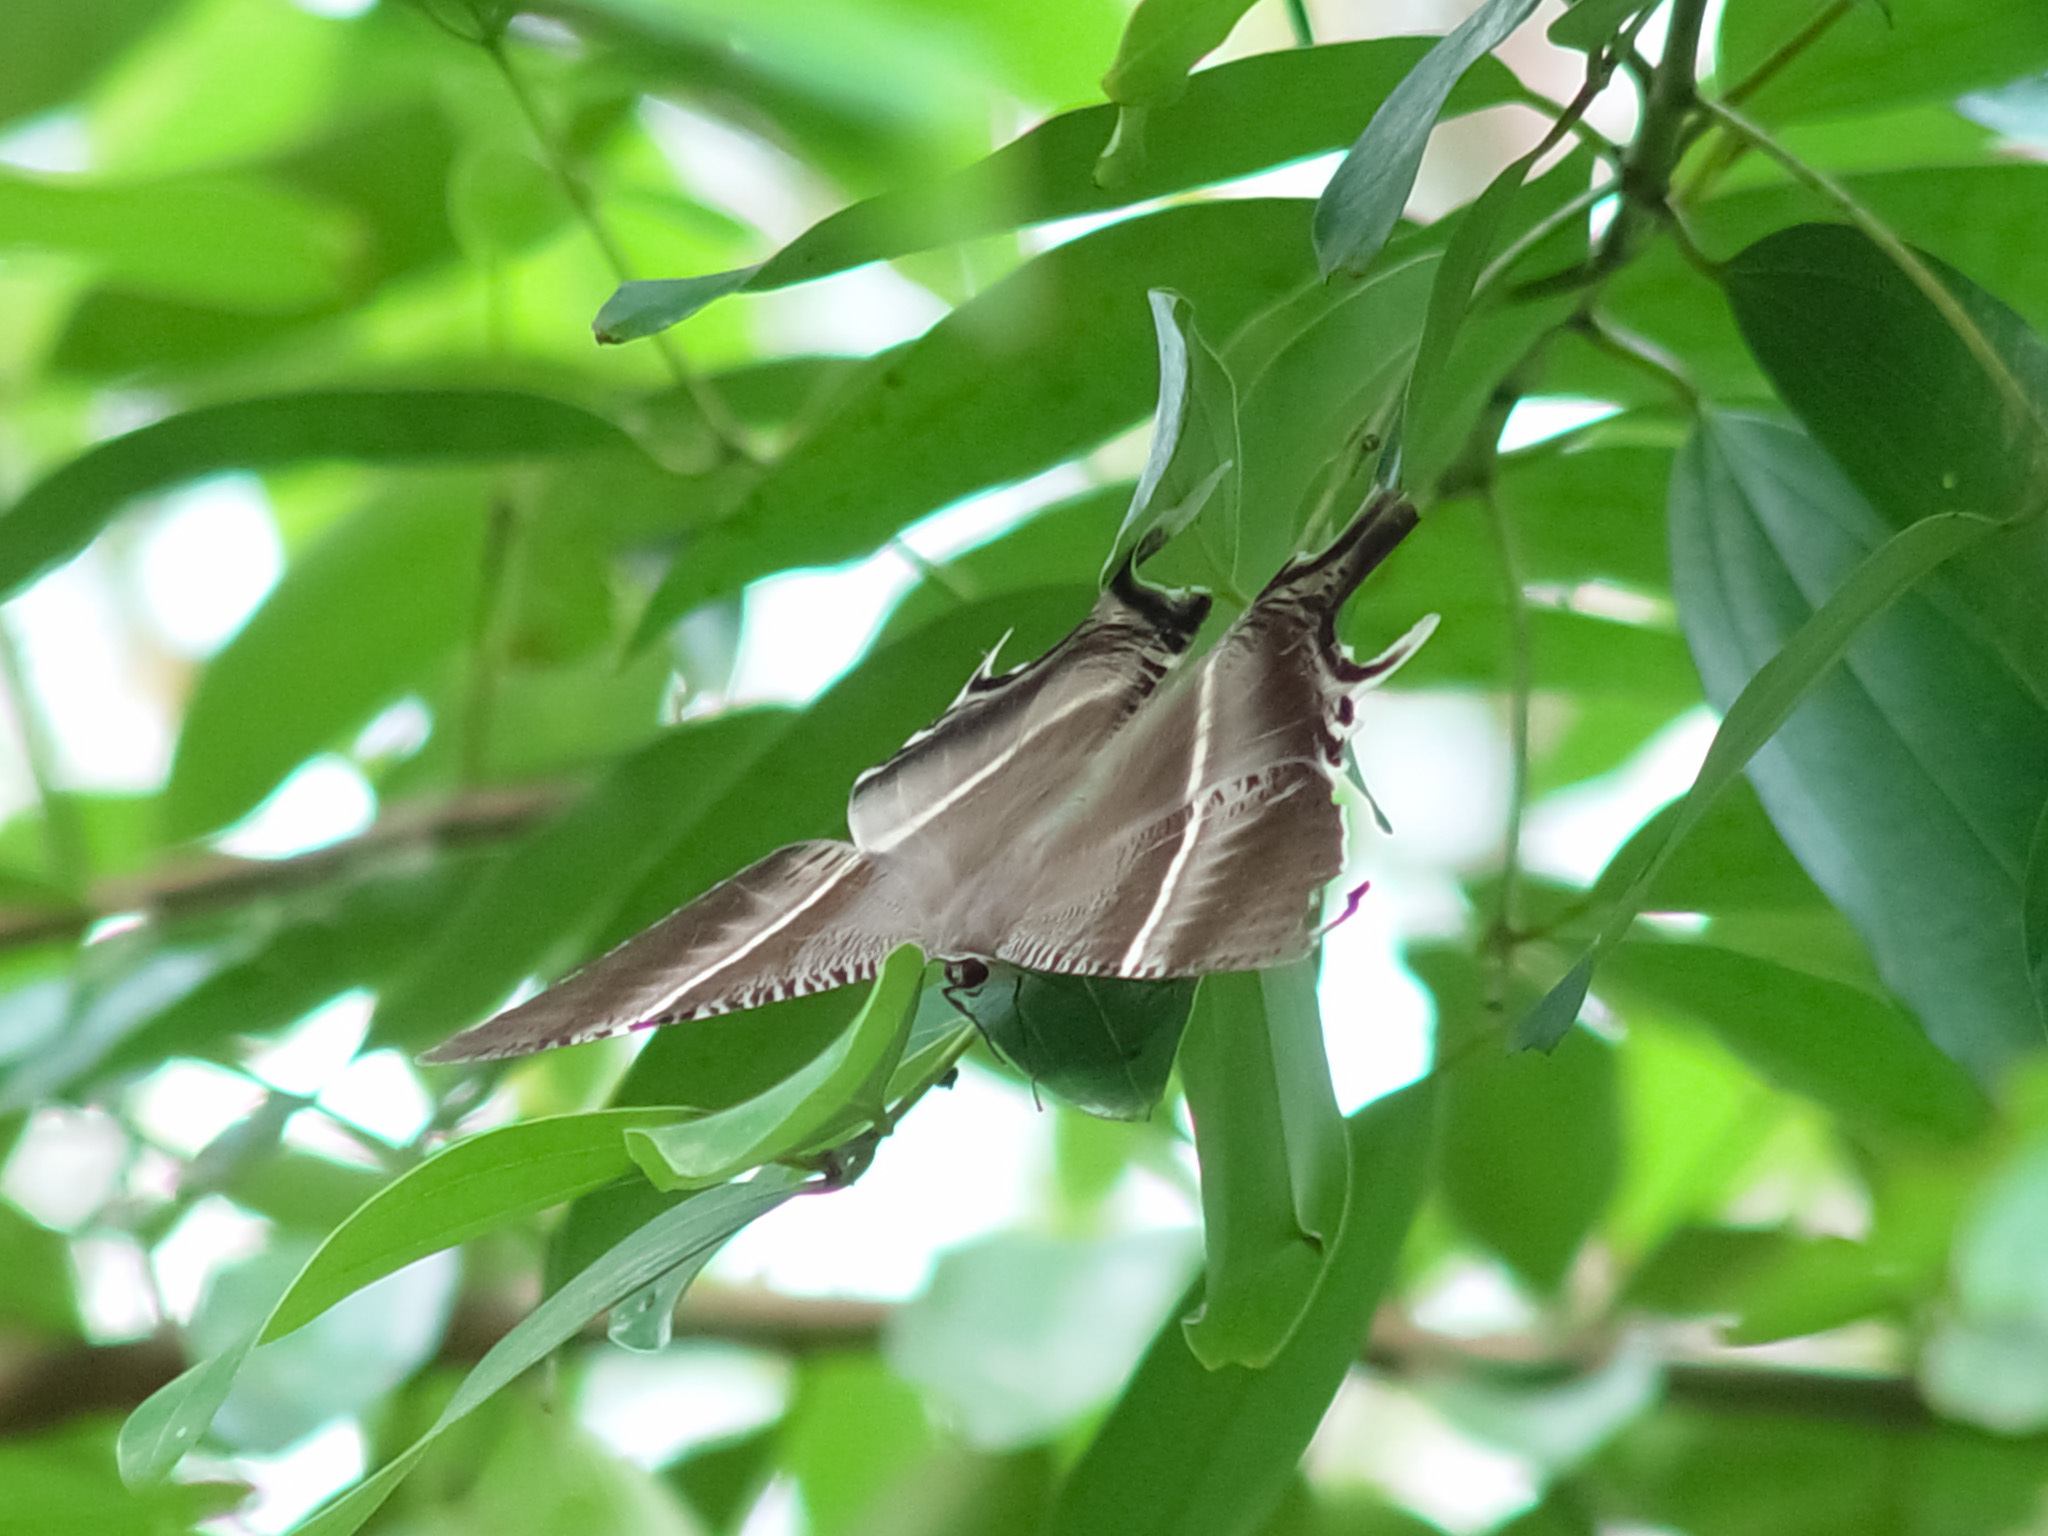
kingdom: Animalia
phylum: Arthropoda
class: Insecta
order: Lepidoptera
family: Uraniidae
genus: Lyssa
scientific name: Lyssa zampa
